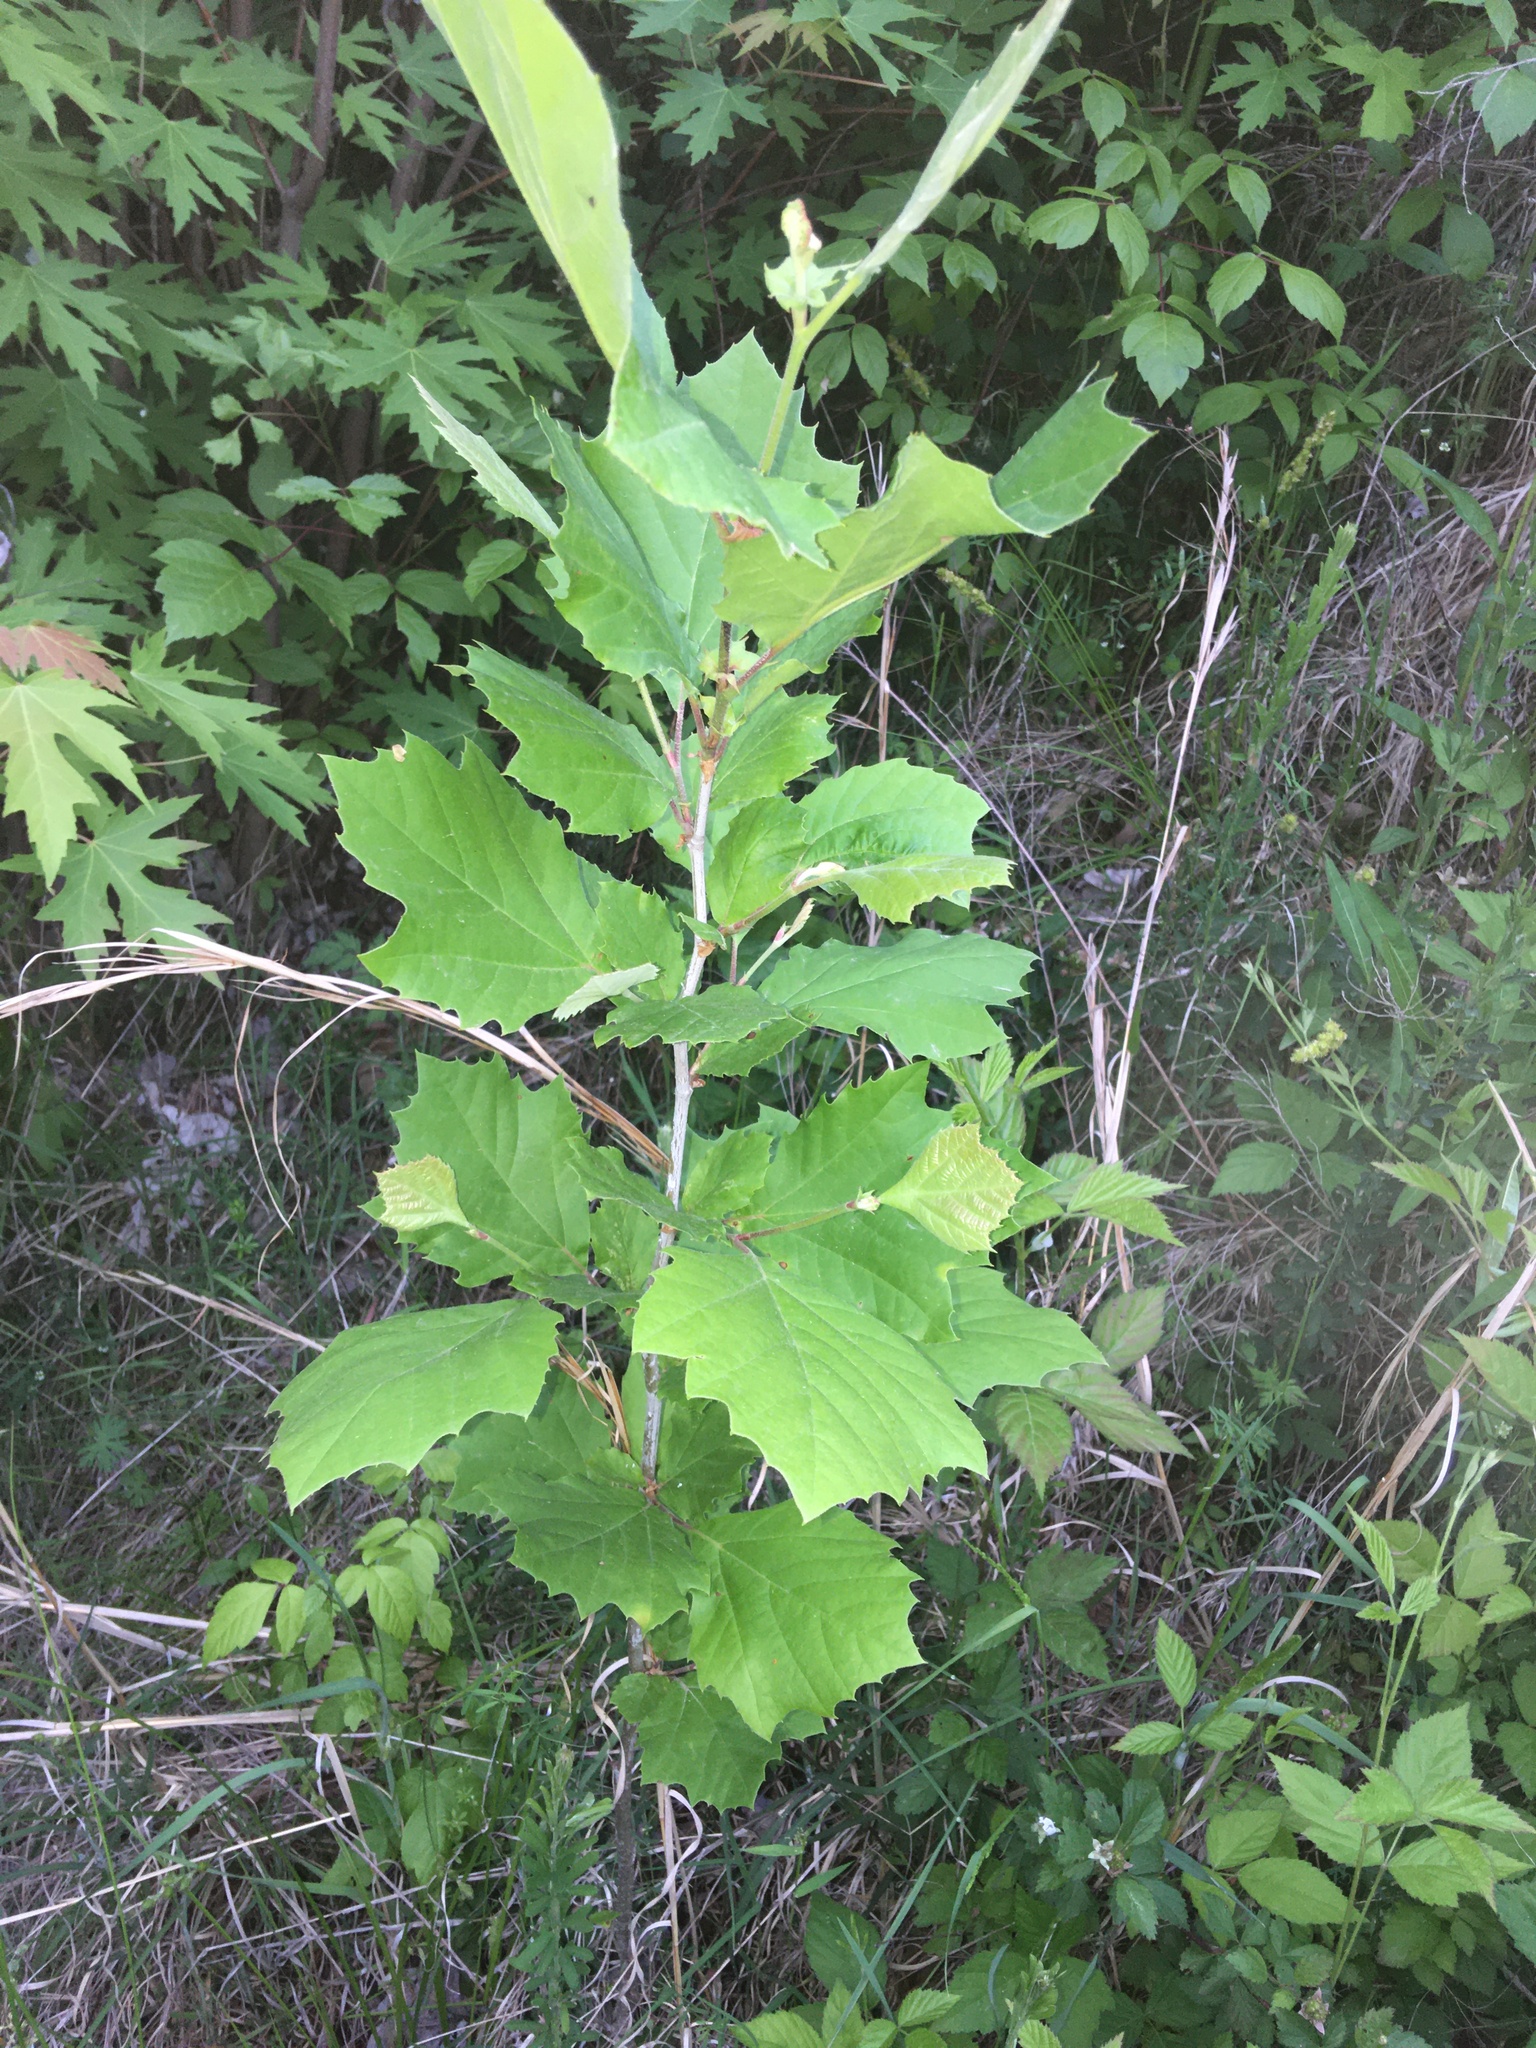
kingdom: Plantae
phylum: Tracheophyta
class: Magnoliopsida
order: Proteales
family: Platanaceae
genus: Platanus
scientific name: Platanus occidentalis
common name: American sycamore
